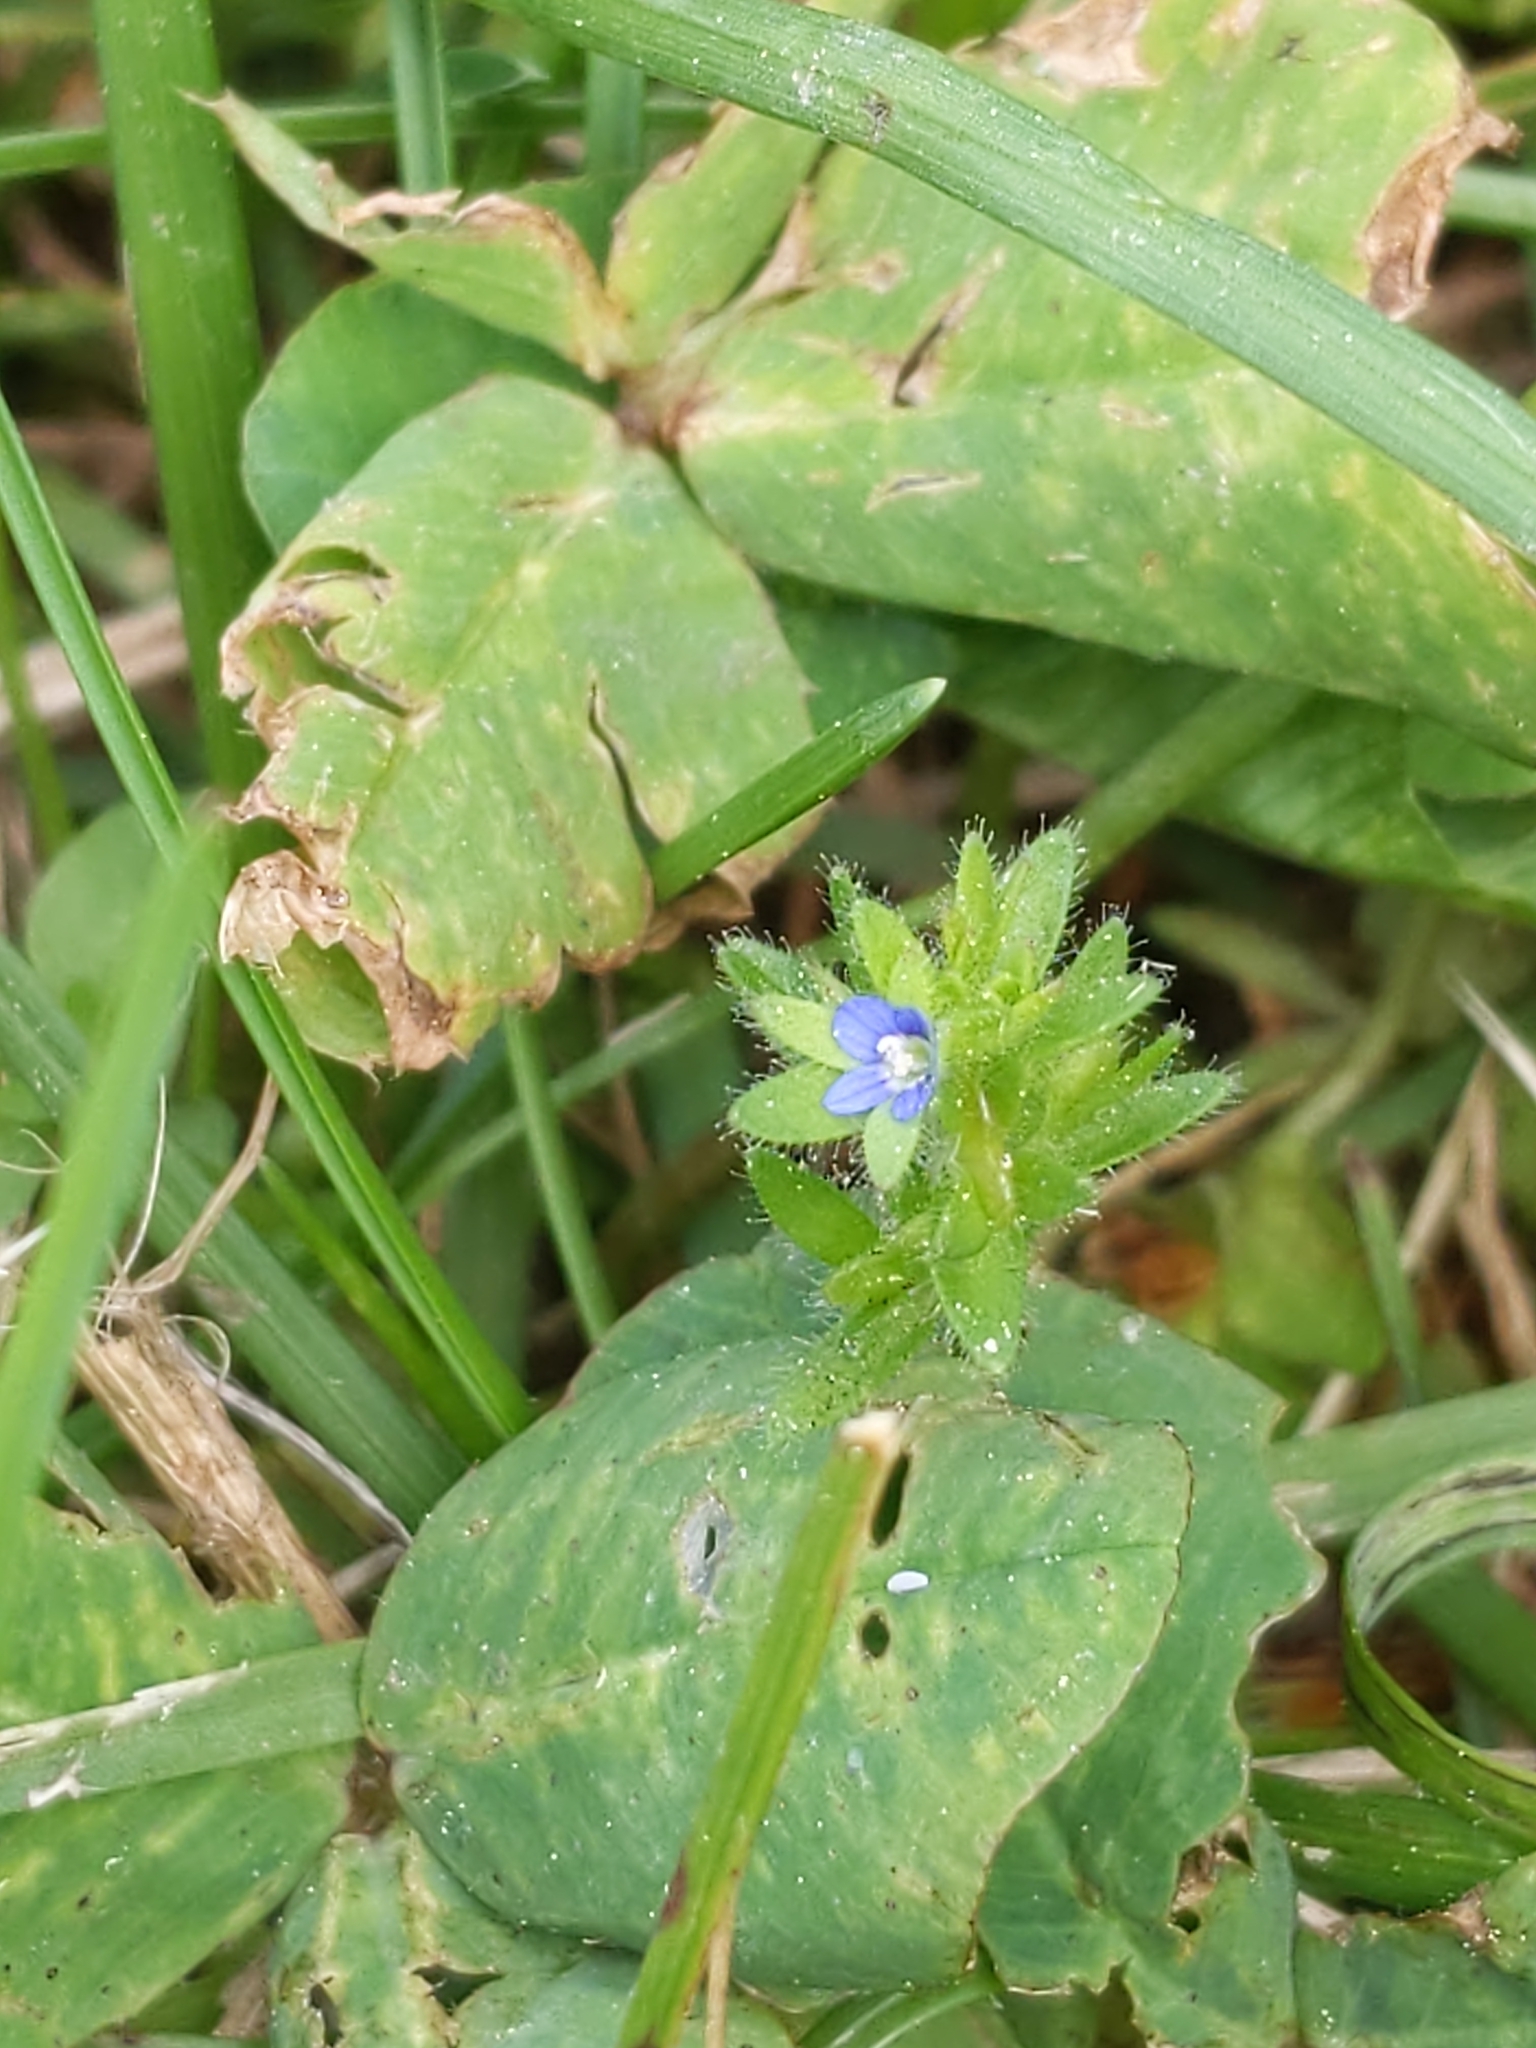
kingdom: Plantae
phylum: Tracheophyta
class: Magnoliopsida
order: Lamiales
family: Plantaginaceae
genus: Veronica
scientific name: Veronica arvensis
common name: Corn speedwell
